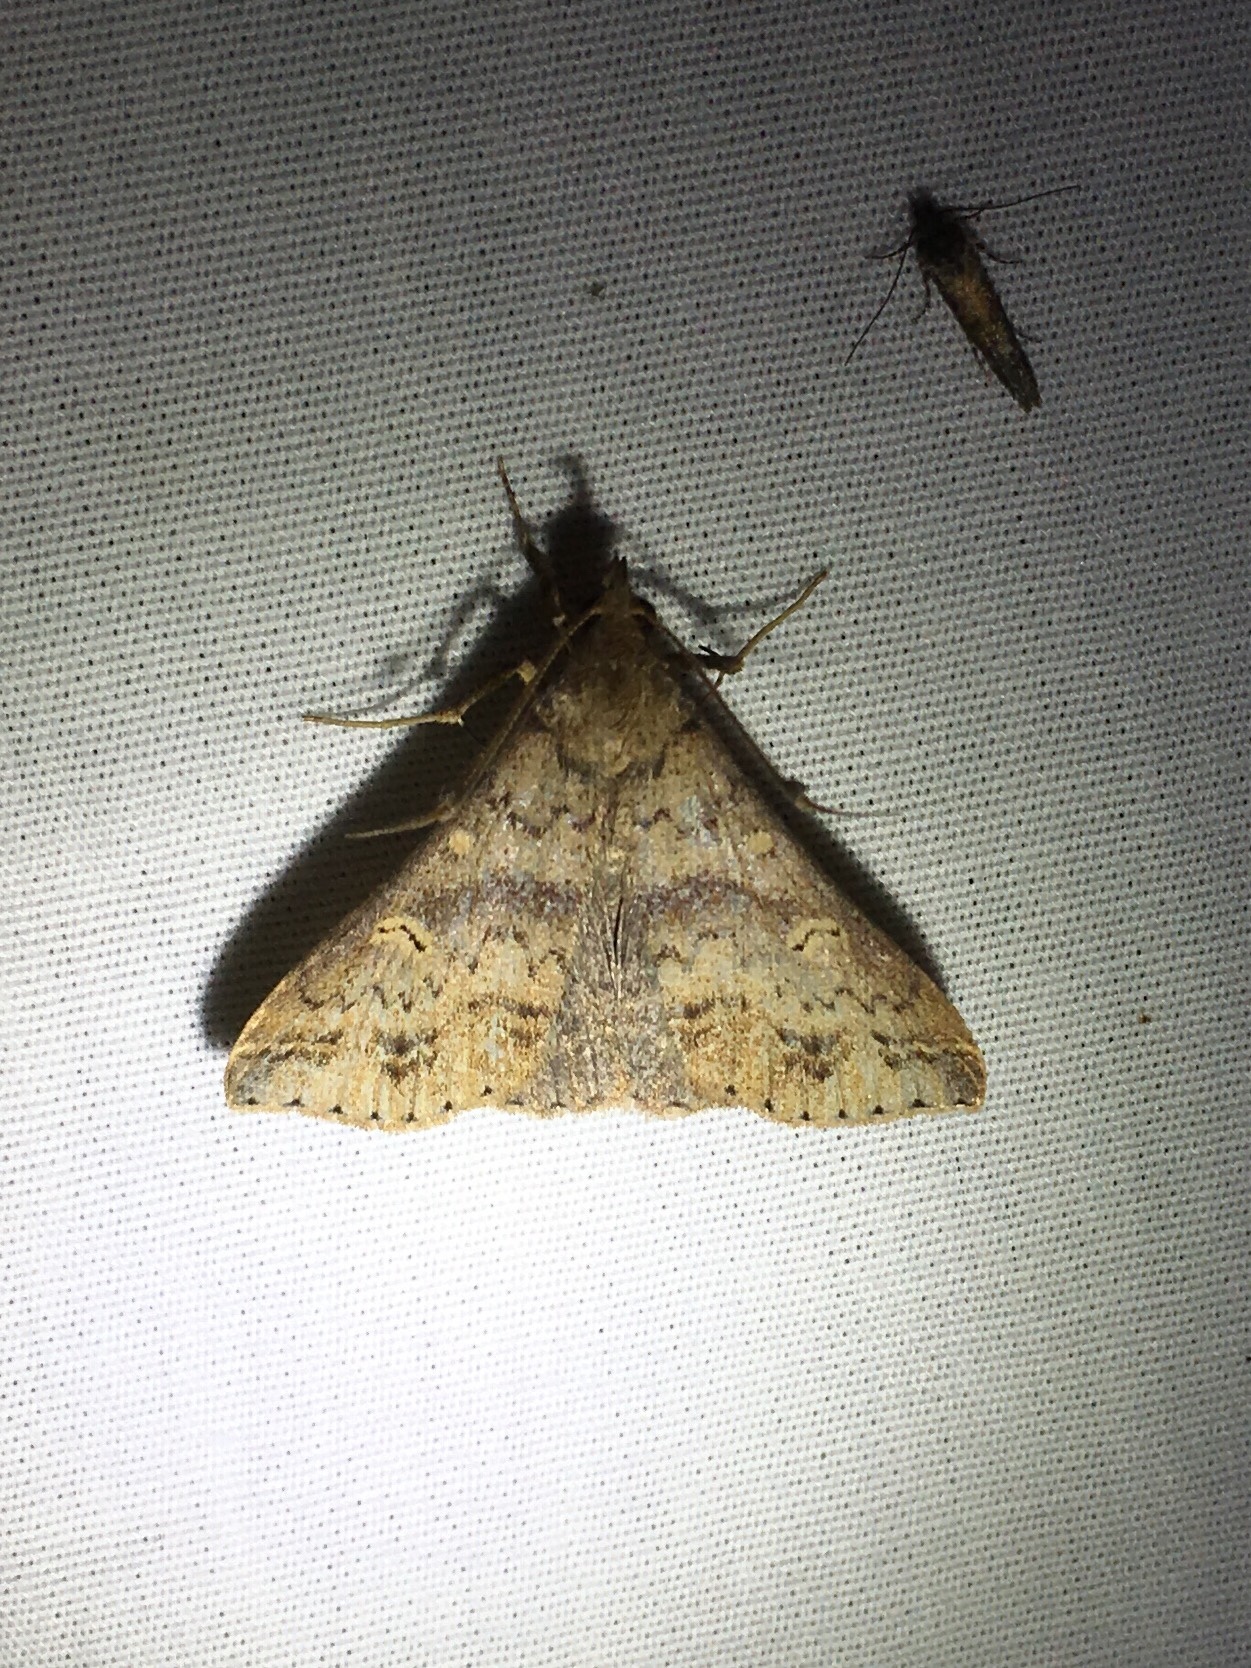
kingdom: Animalia
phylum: Arthropoda
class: Insecta
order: Lepidoptera
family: Erebidae
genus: Renia
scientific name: Renia discoloralis
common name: Discolored renia moth
